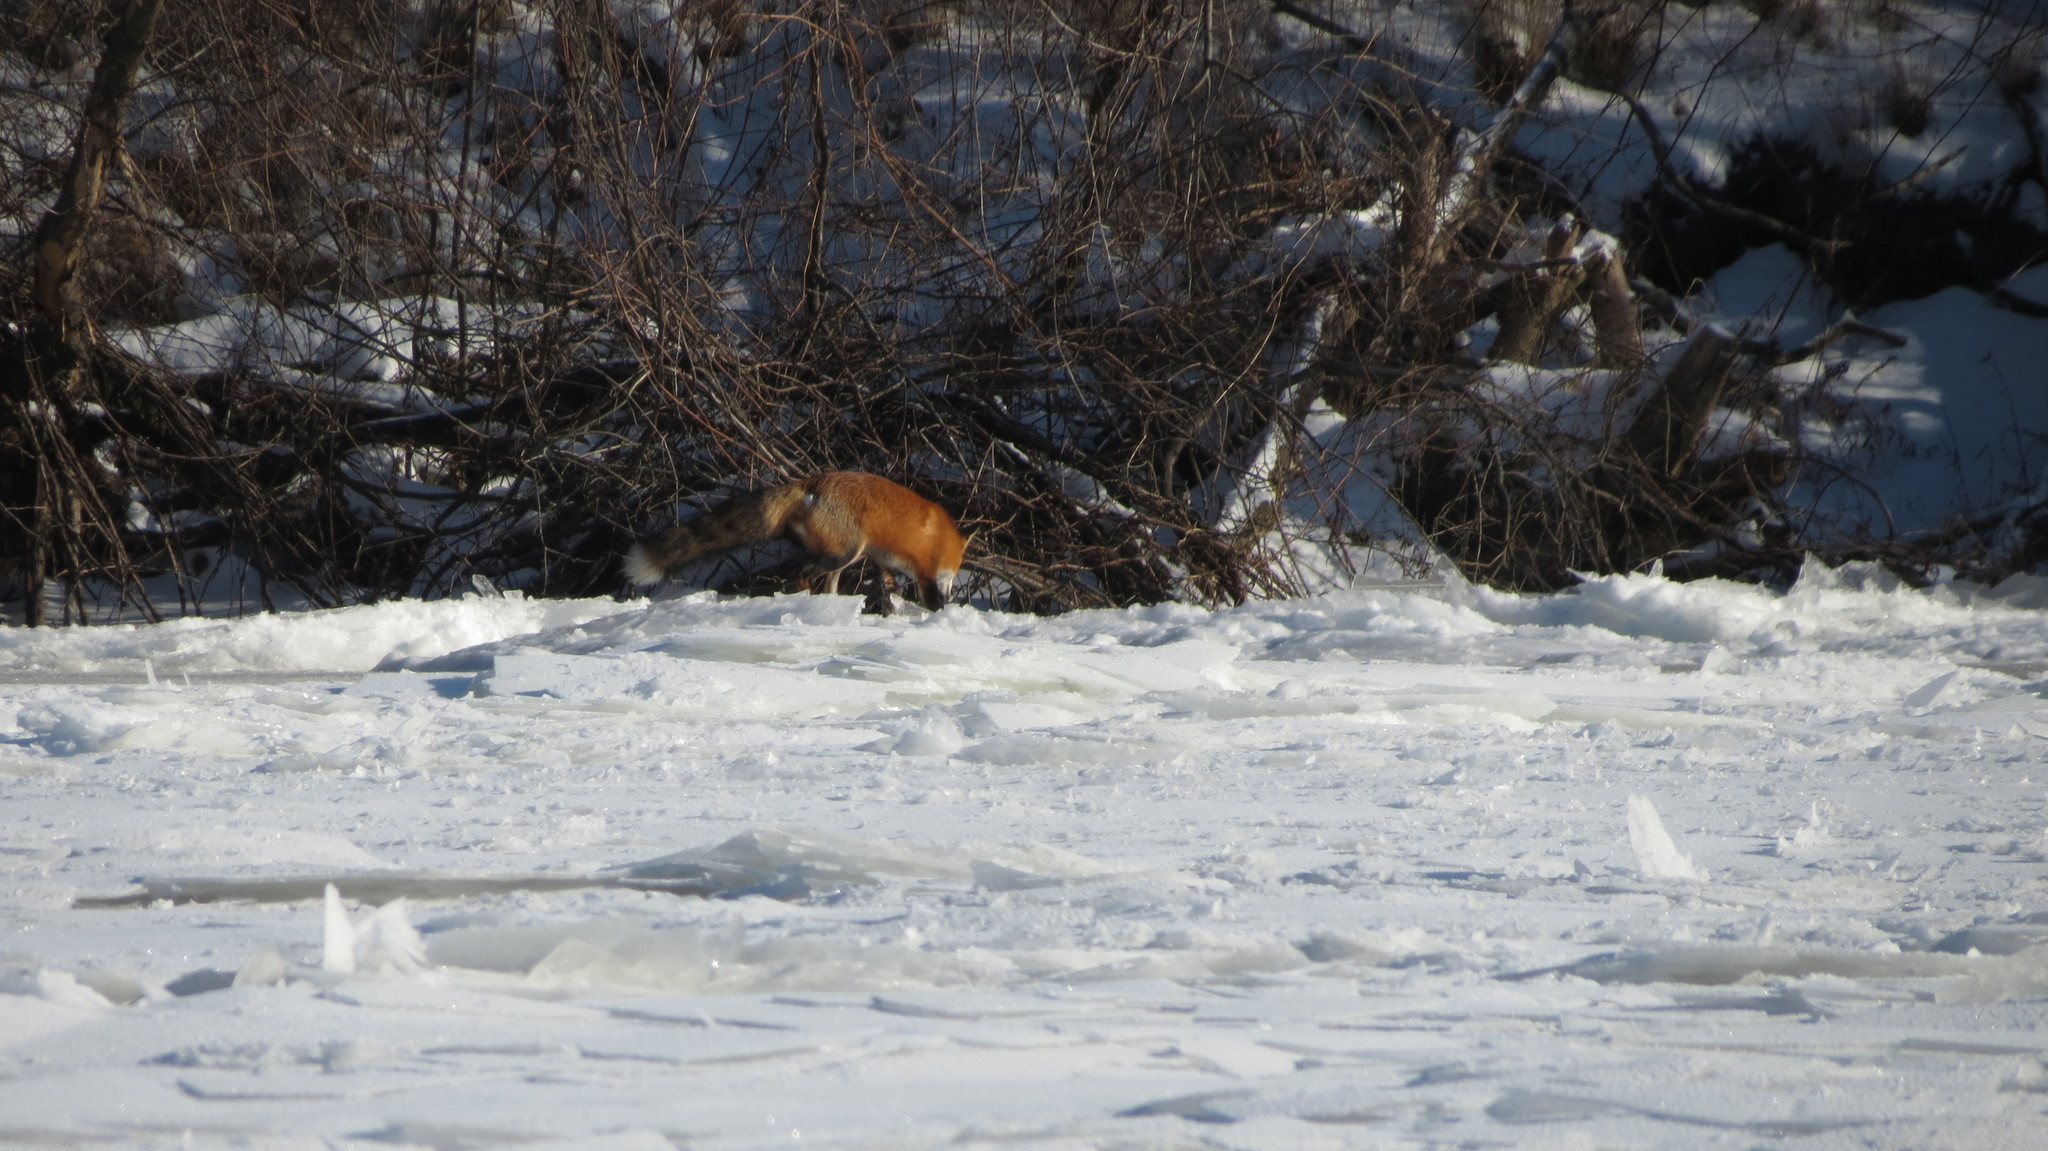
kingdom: Animalia
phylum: Chordata
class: Mammalia
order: Carnivora
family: Canidae
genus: Vulpes
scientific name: Vulpes vulpes
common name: Red fox
